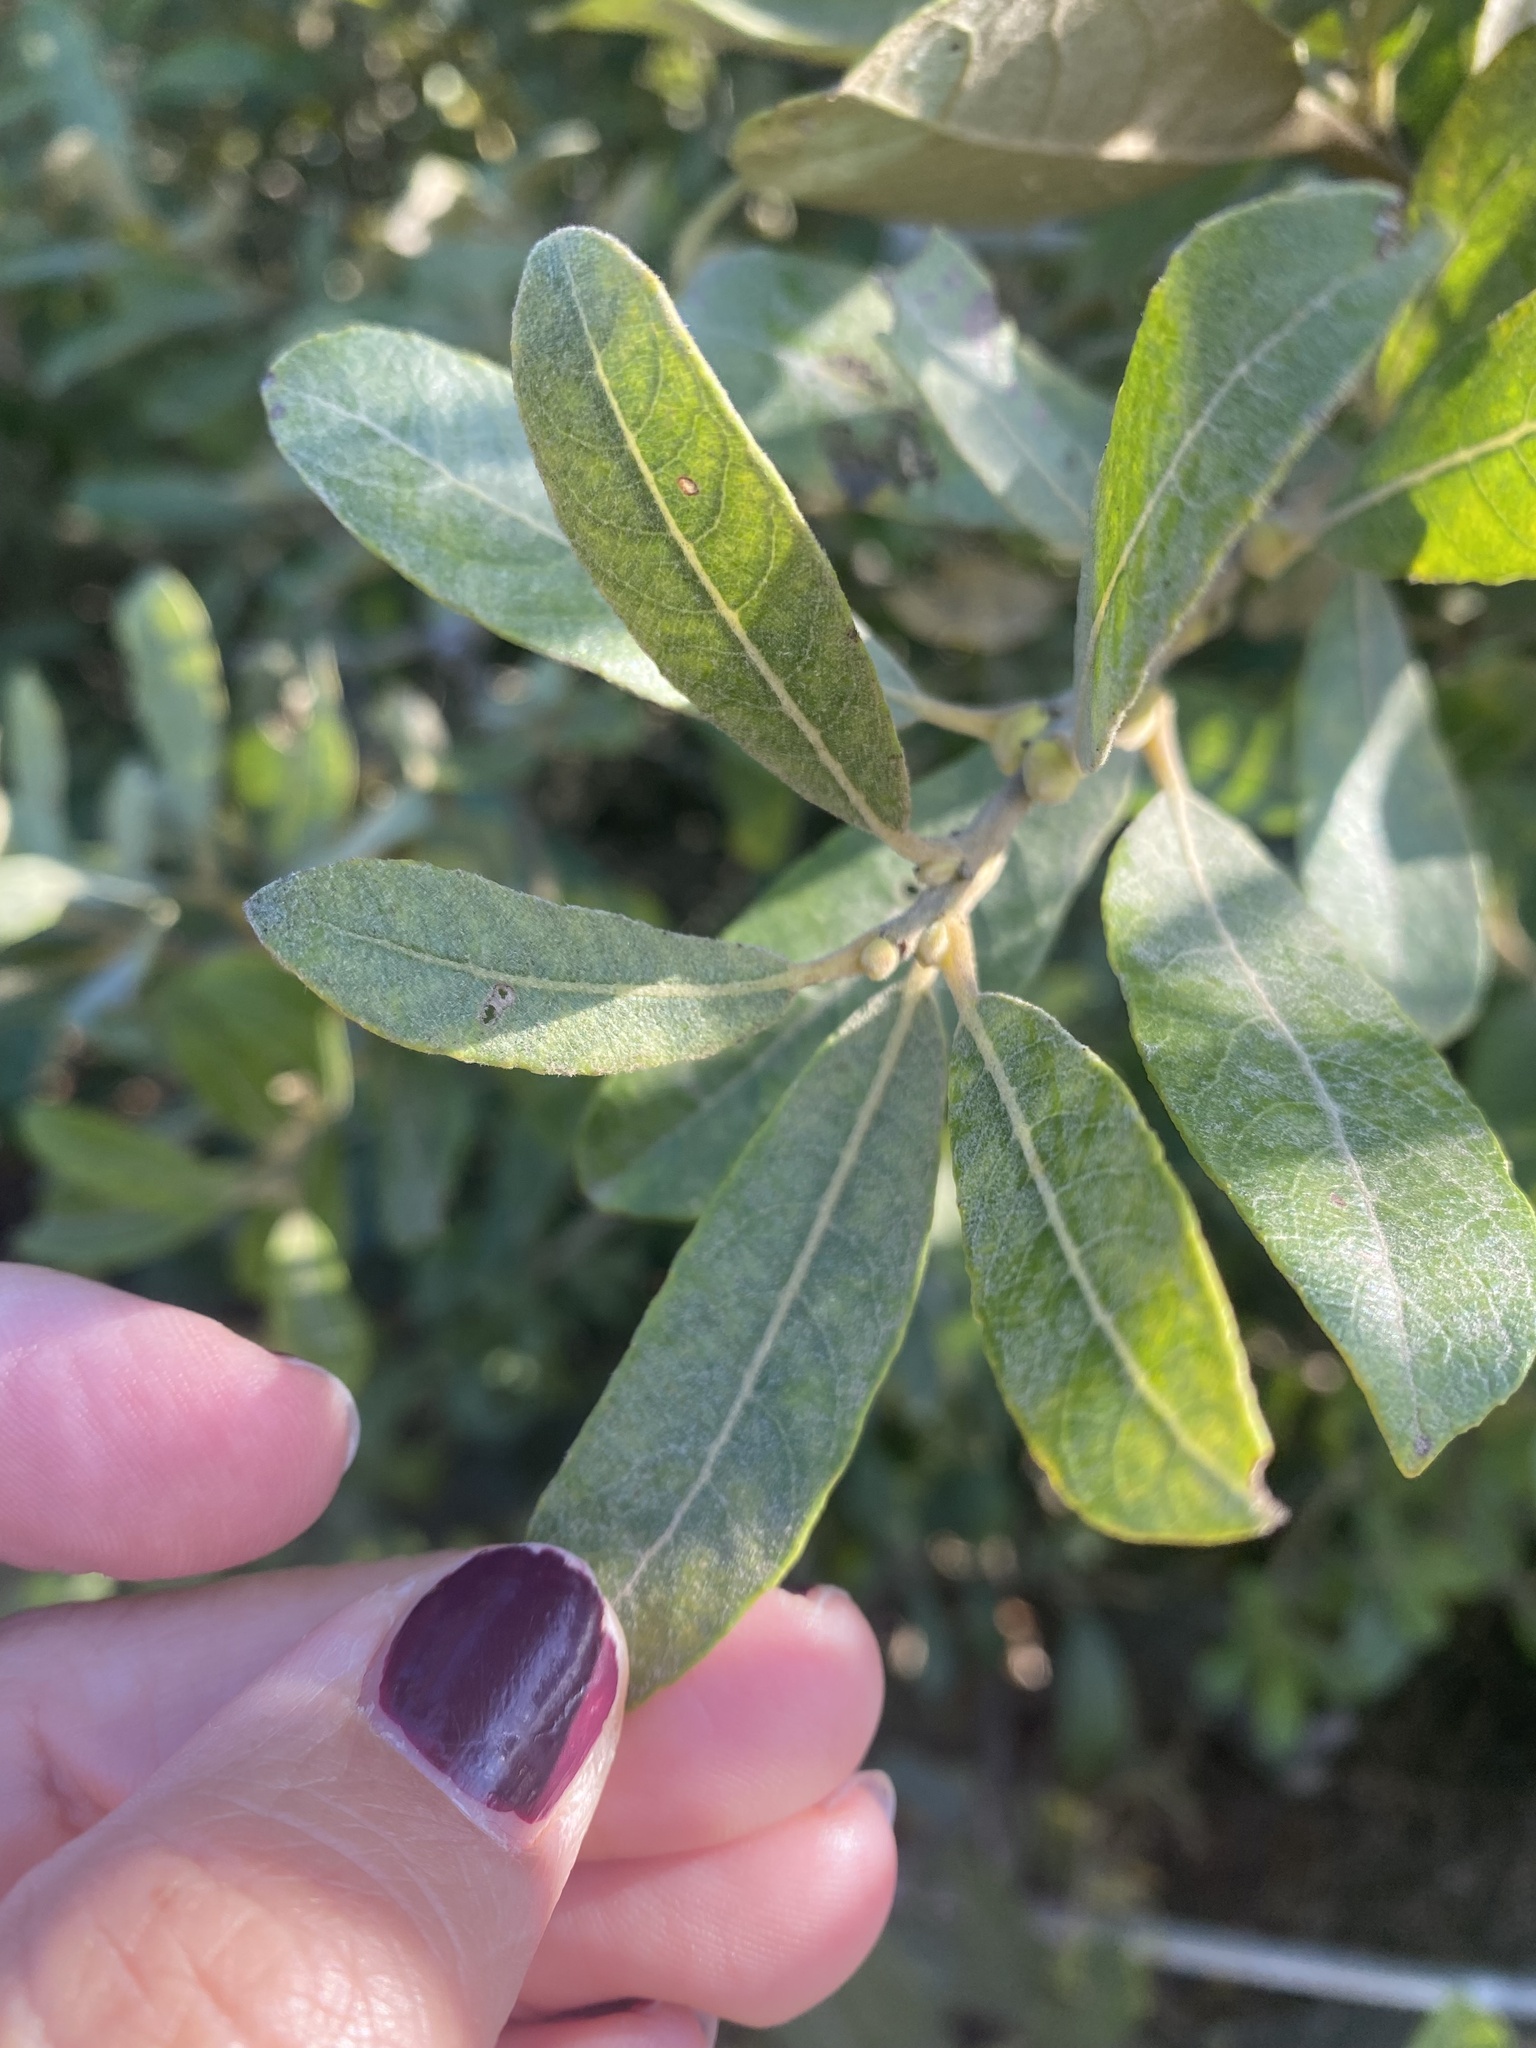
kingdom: Plantae
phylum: Tracheophyta
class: Magnoliopsida
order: Malpighiales
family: Salicaceae
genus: Salix
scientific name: Salix lasiolepis
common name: Arroyo willow
